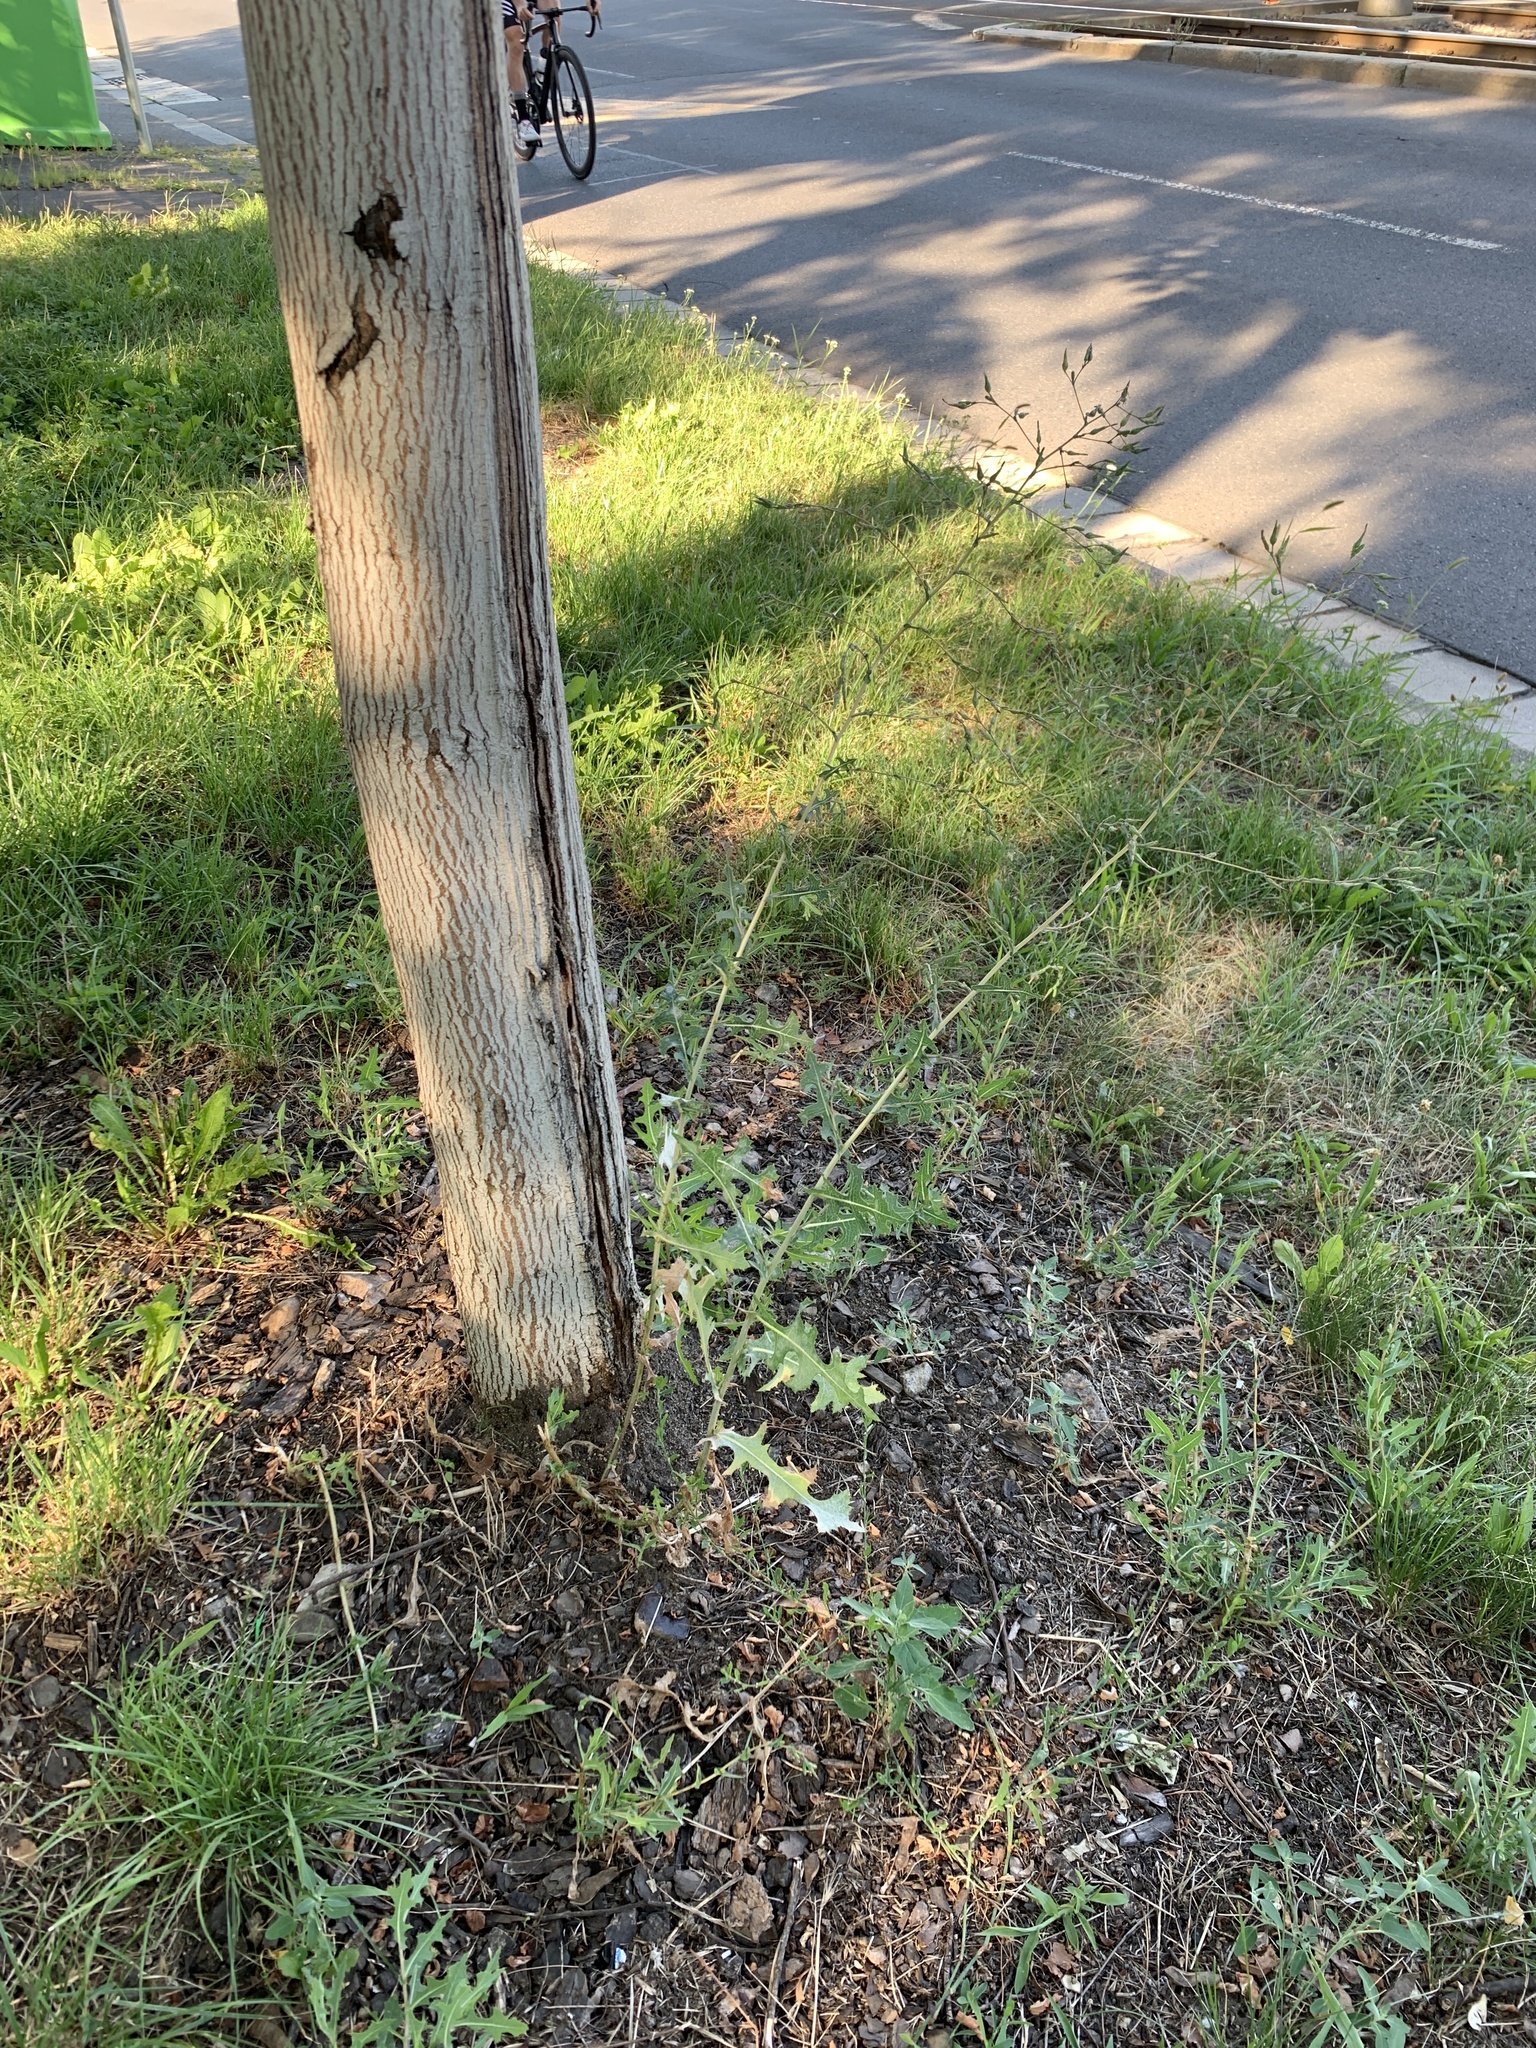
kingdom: Plantae
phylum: Tracheophyta
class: Magnoliopsida
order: Asterales
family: Asteraceae
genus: Lactuca
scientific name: Lactuca serriola
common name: Prickly lettuce
